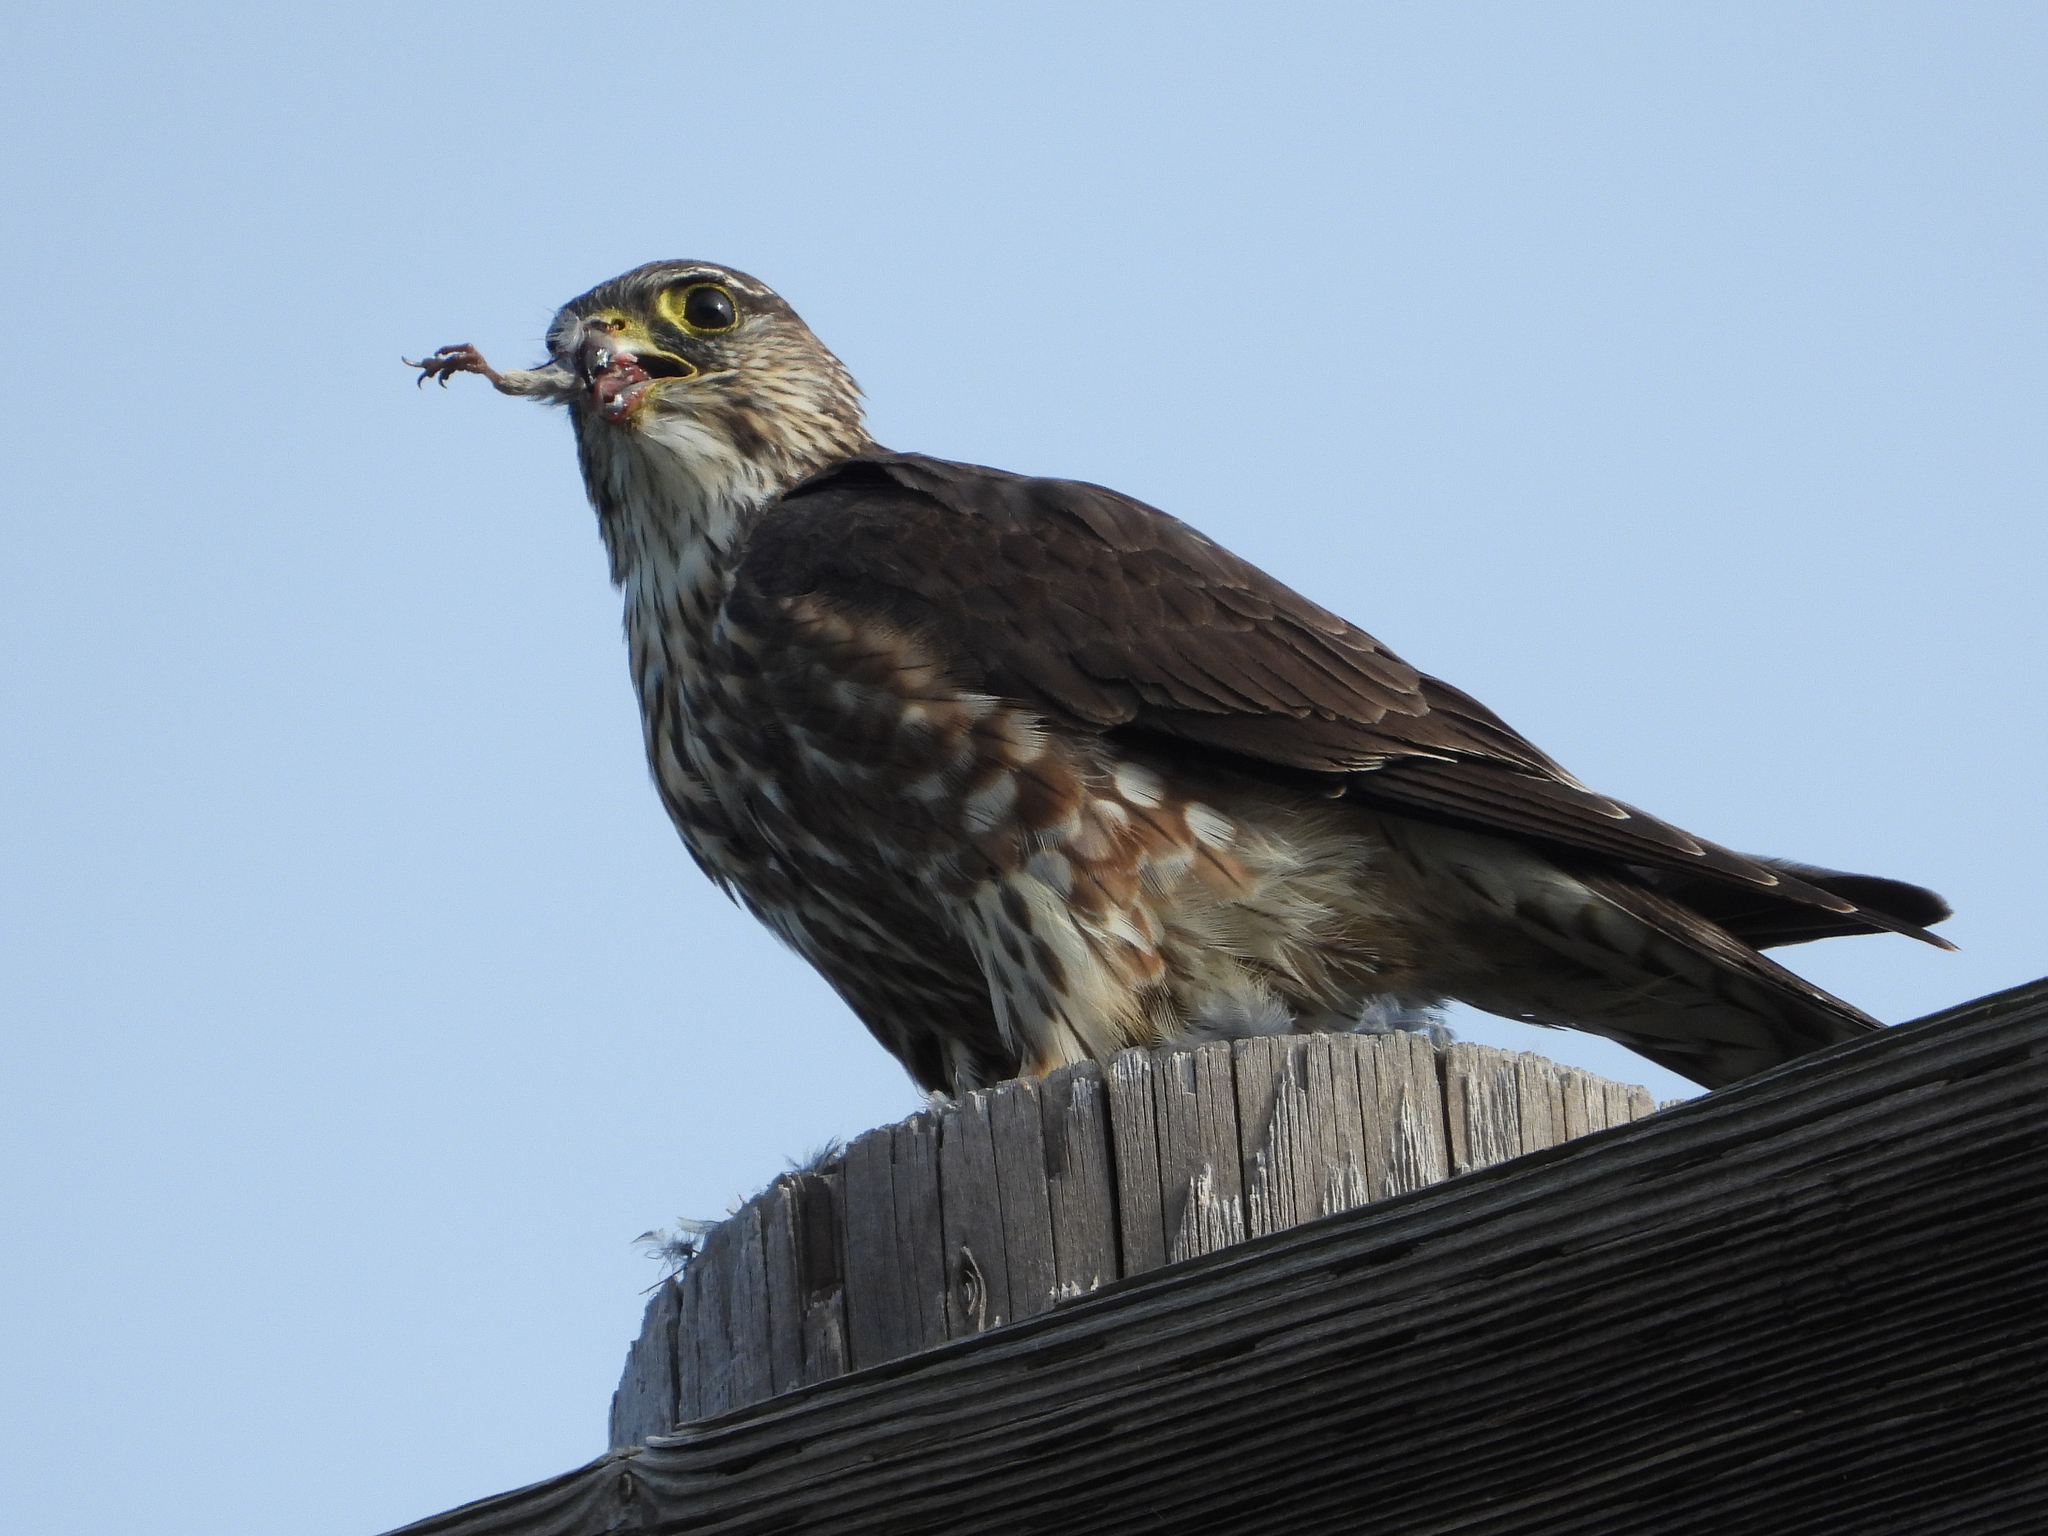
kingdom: Animalia
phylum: Chordata
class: Aves
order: Falconiformes
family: Falconidae
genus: Falco
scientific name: Falco columbarius
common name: Merlin
